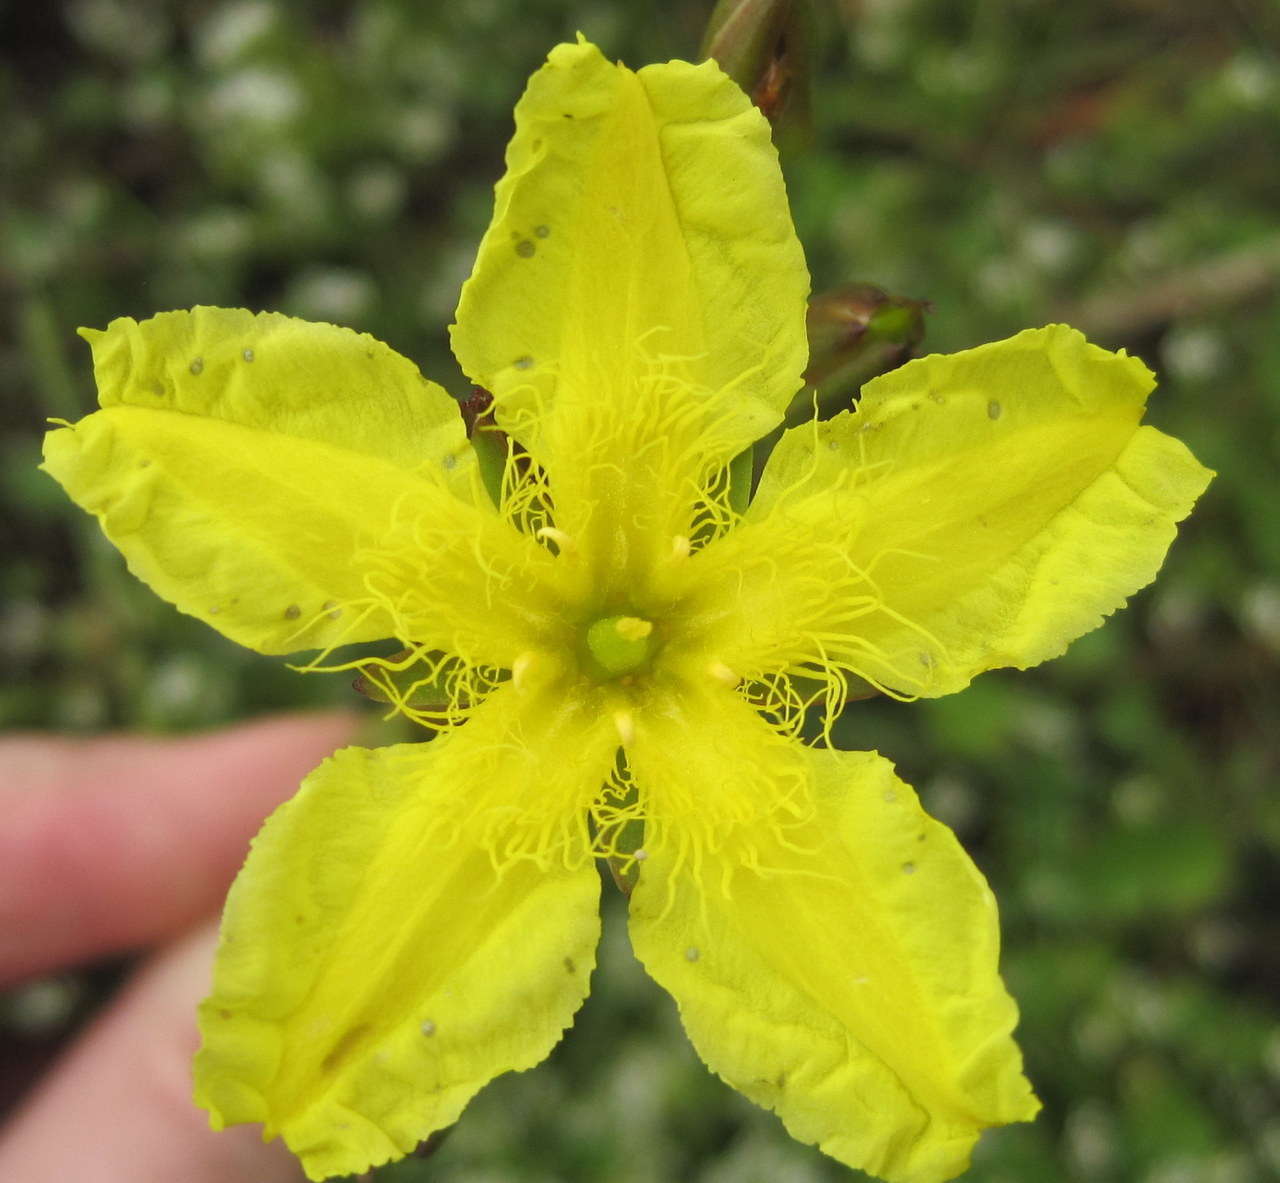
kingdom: Plantae
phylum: Tracheophyta
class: Magnoliopsida
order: Asterales
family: Menyanthaceae
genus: Ornduffia
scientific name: Ornduffia reniformis
